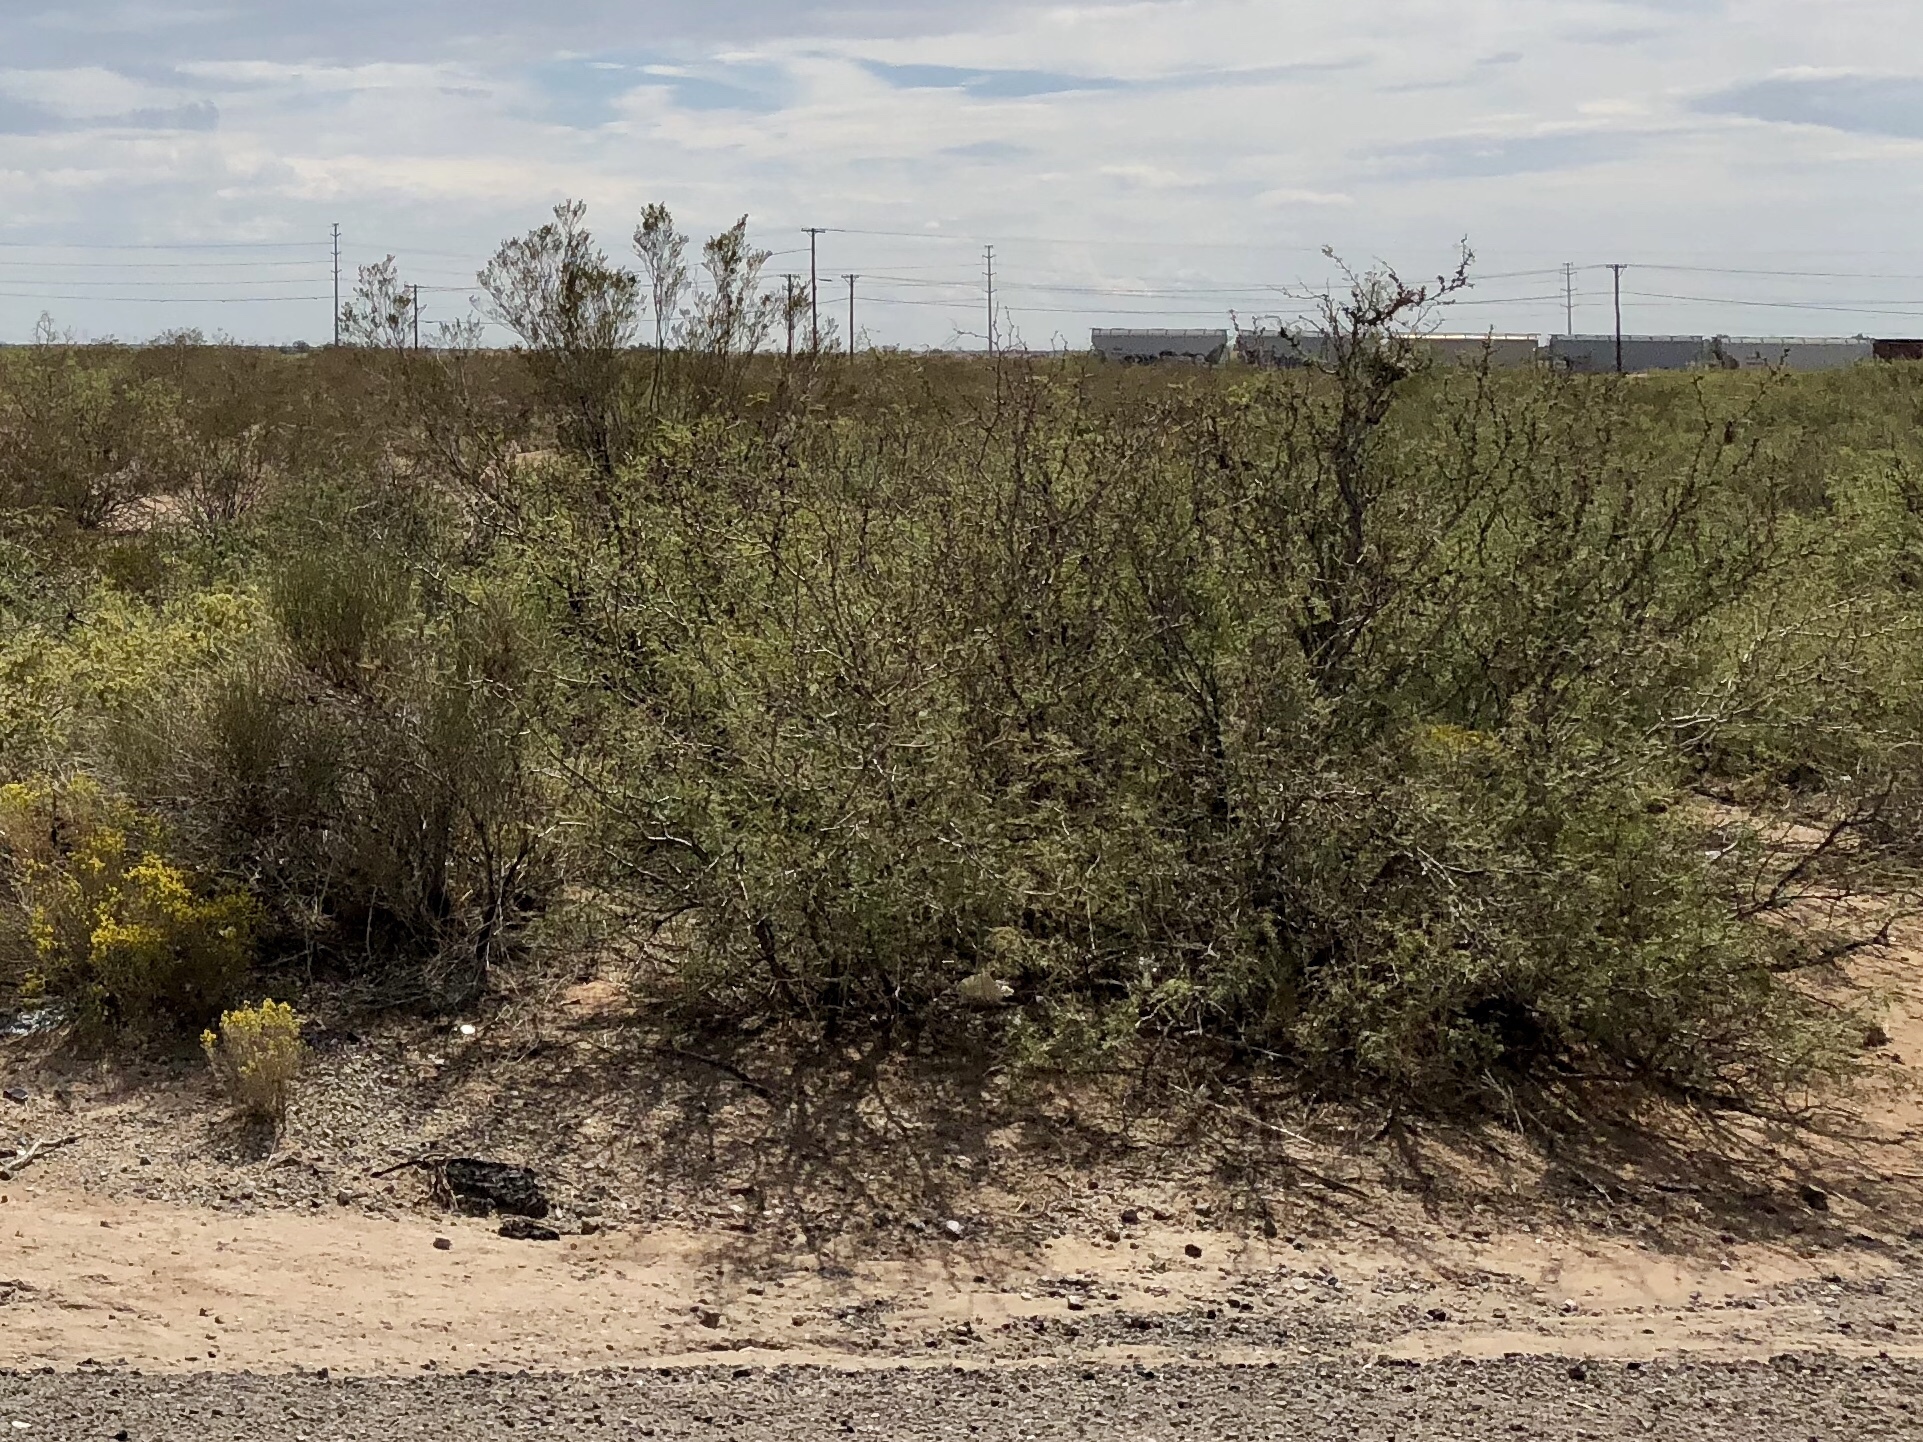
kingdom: Plantae
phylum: Tracheophyta
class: Magnoliopsida
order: Fabales
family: Fabaceae
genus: Vachellia
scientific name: Vachellia constricta
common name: Mescat acacia
